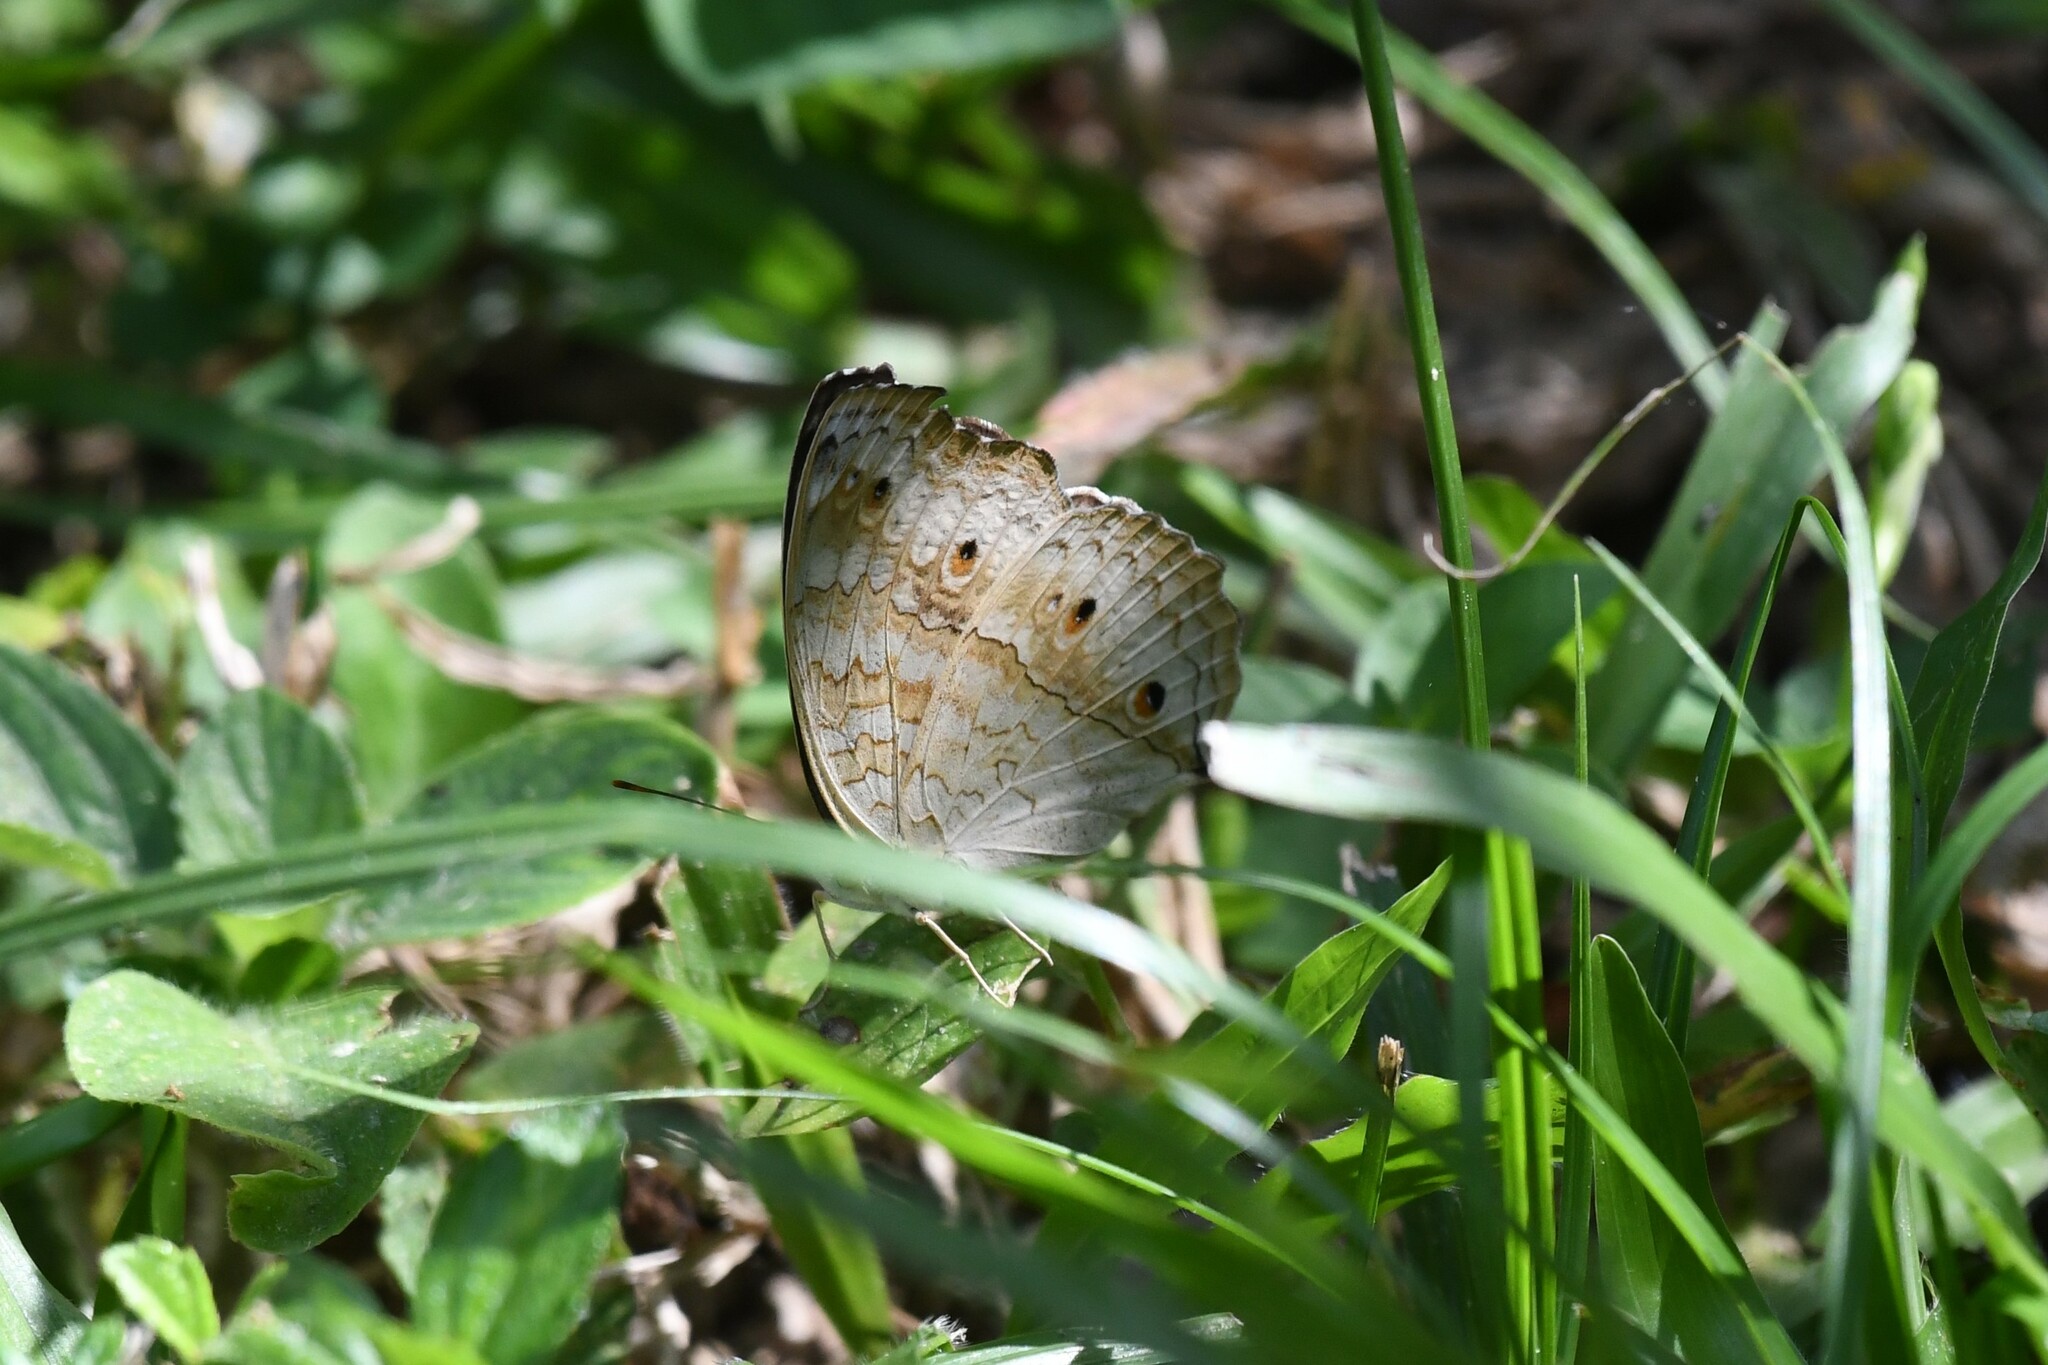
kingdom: Animalia
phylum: Arthropoda
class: Insecta
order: Lepidoptera
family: Nymphalidae
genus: Junonia
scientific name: Junonia atlites
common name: Grey pansy
